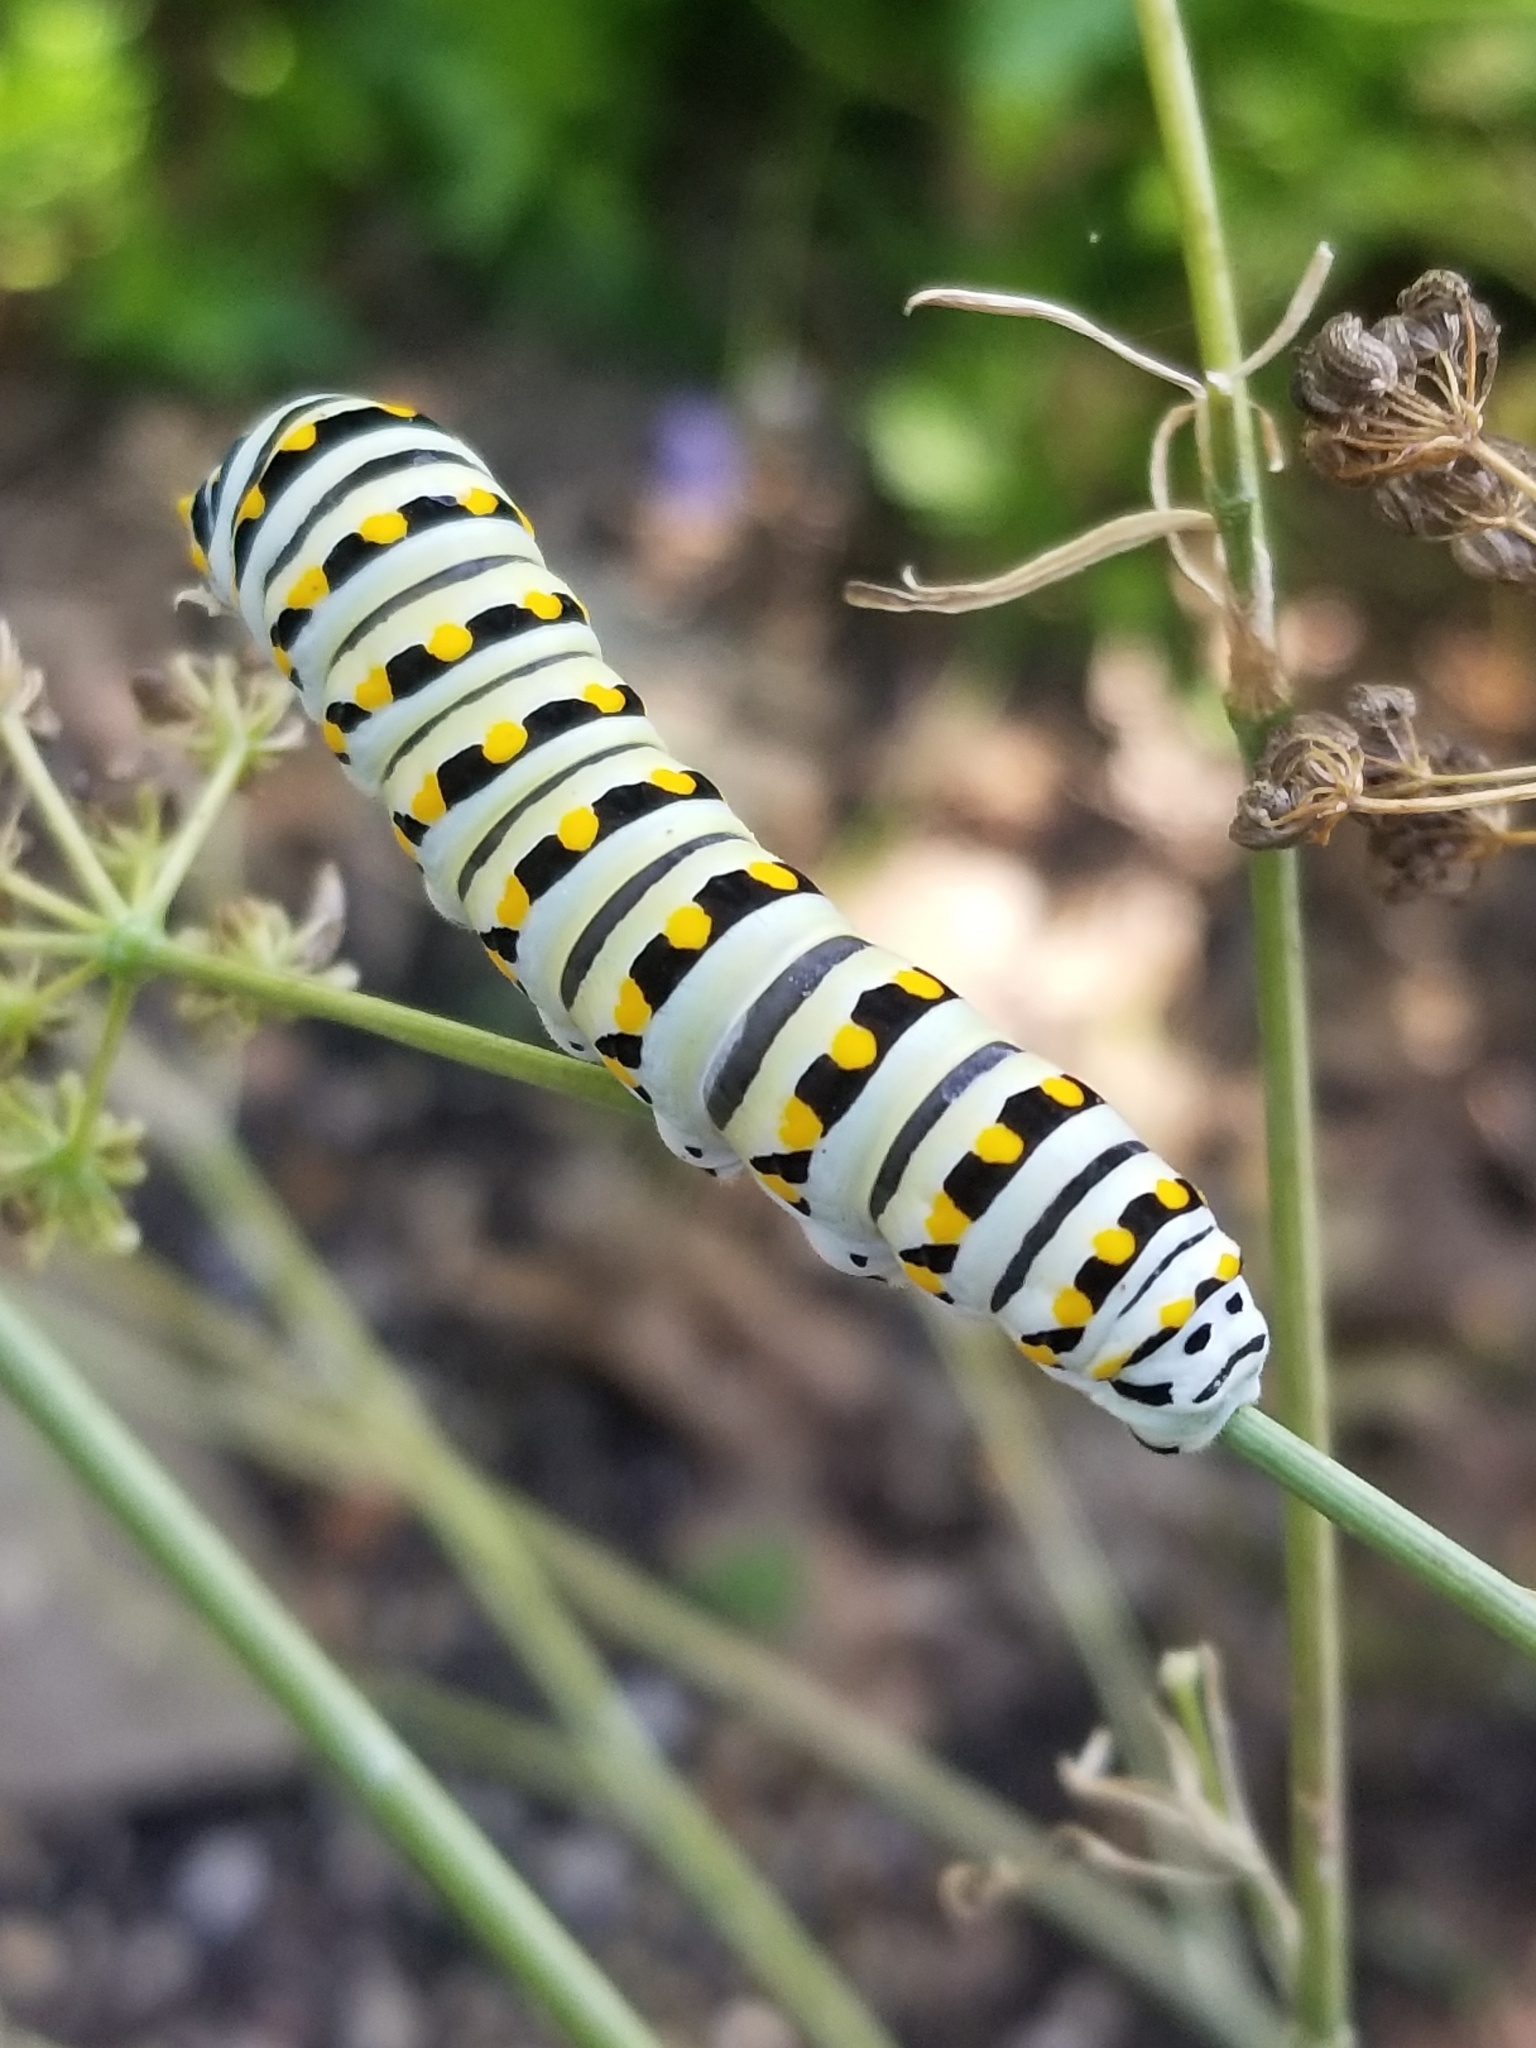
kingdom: Animalia
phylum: Arthropoda
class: Insecta
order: Lepidoptera
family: Papilionidae
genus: Papilio
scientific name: Papilio polyxenes
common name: Black swallowtail
